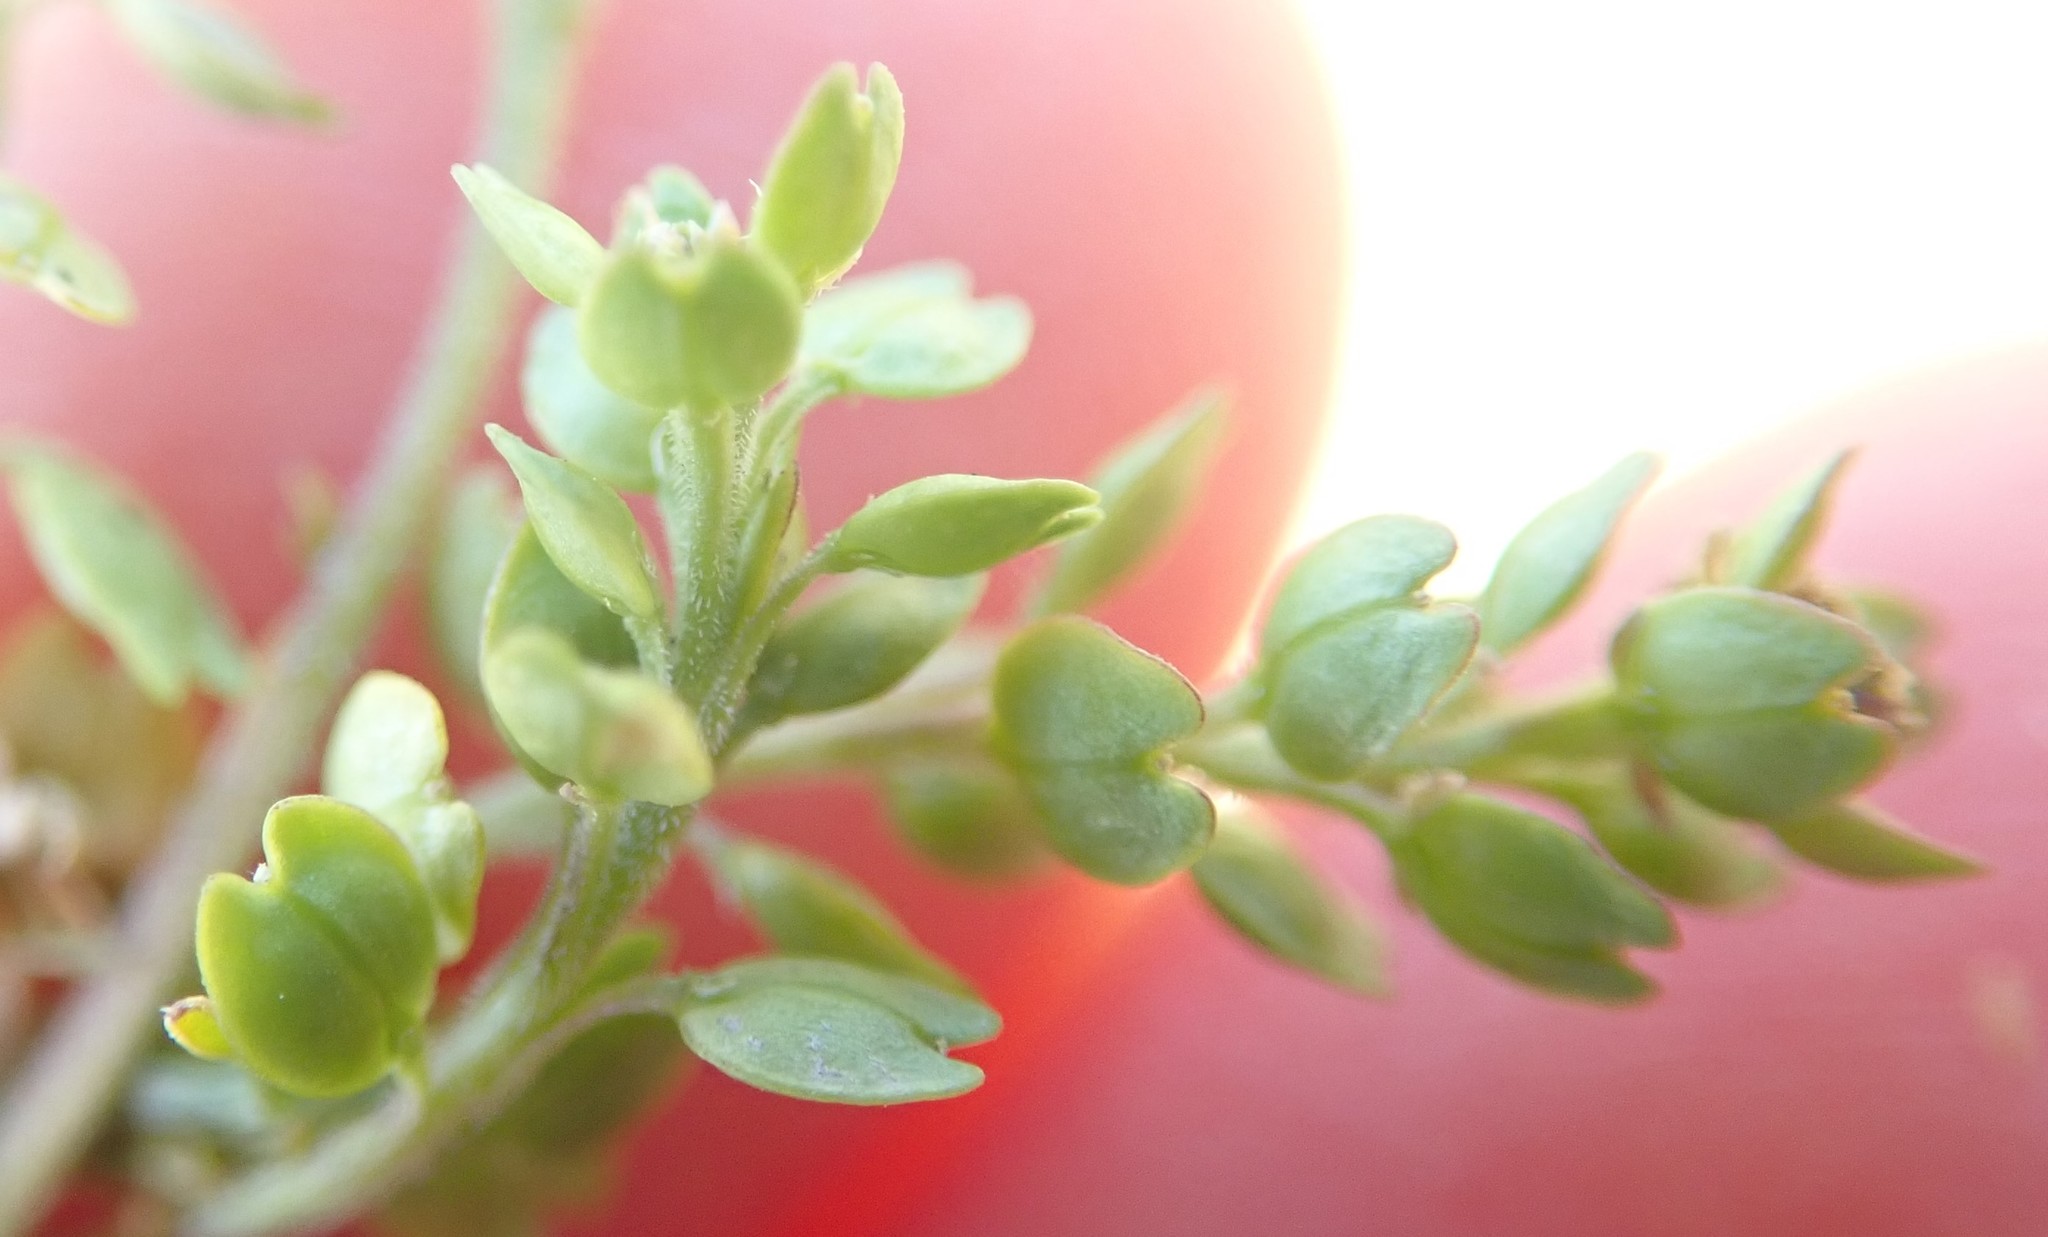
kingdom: Plantae
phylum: Tracheophyta
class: Magnoliopsida
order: Brassicales
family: Brassicaceae
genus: Lepidium
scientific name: Lepidium strictum
